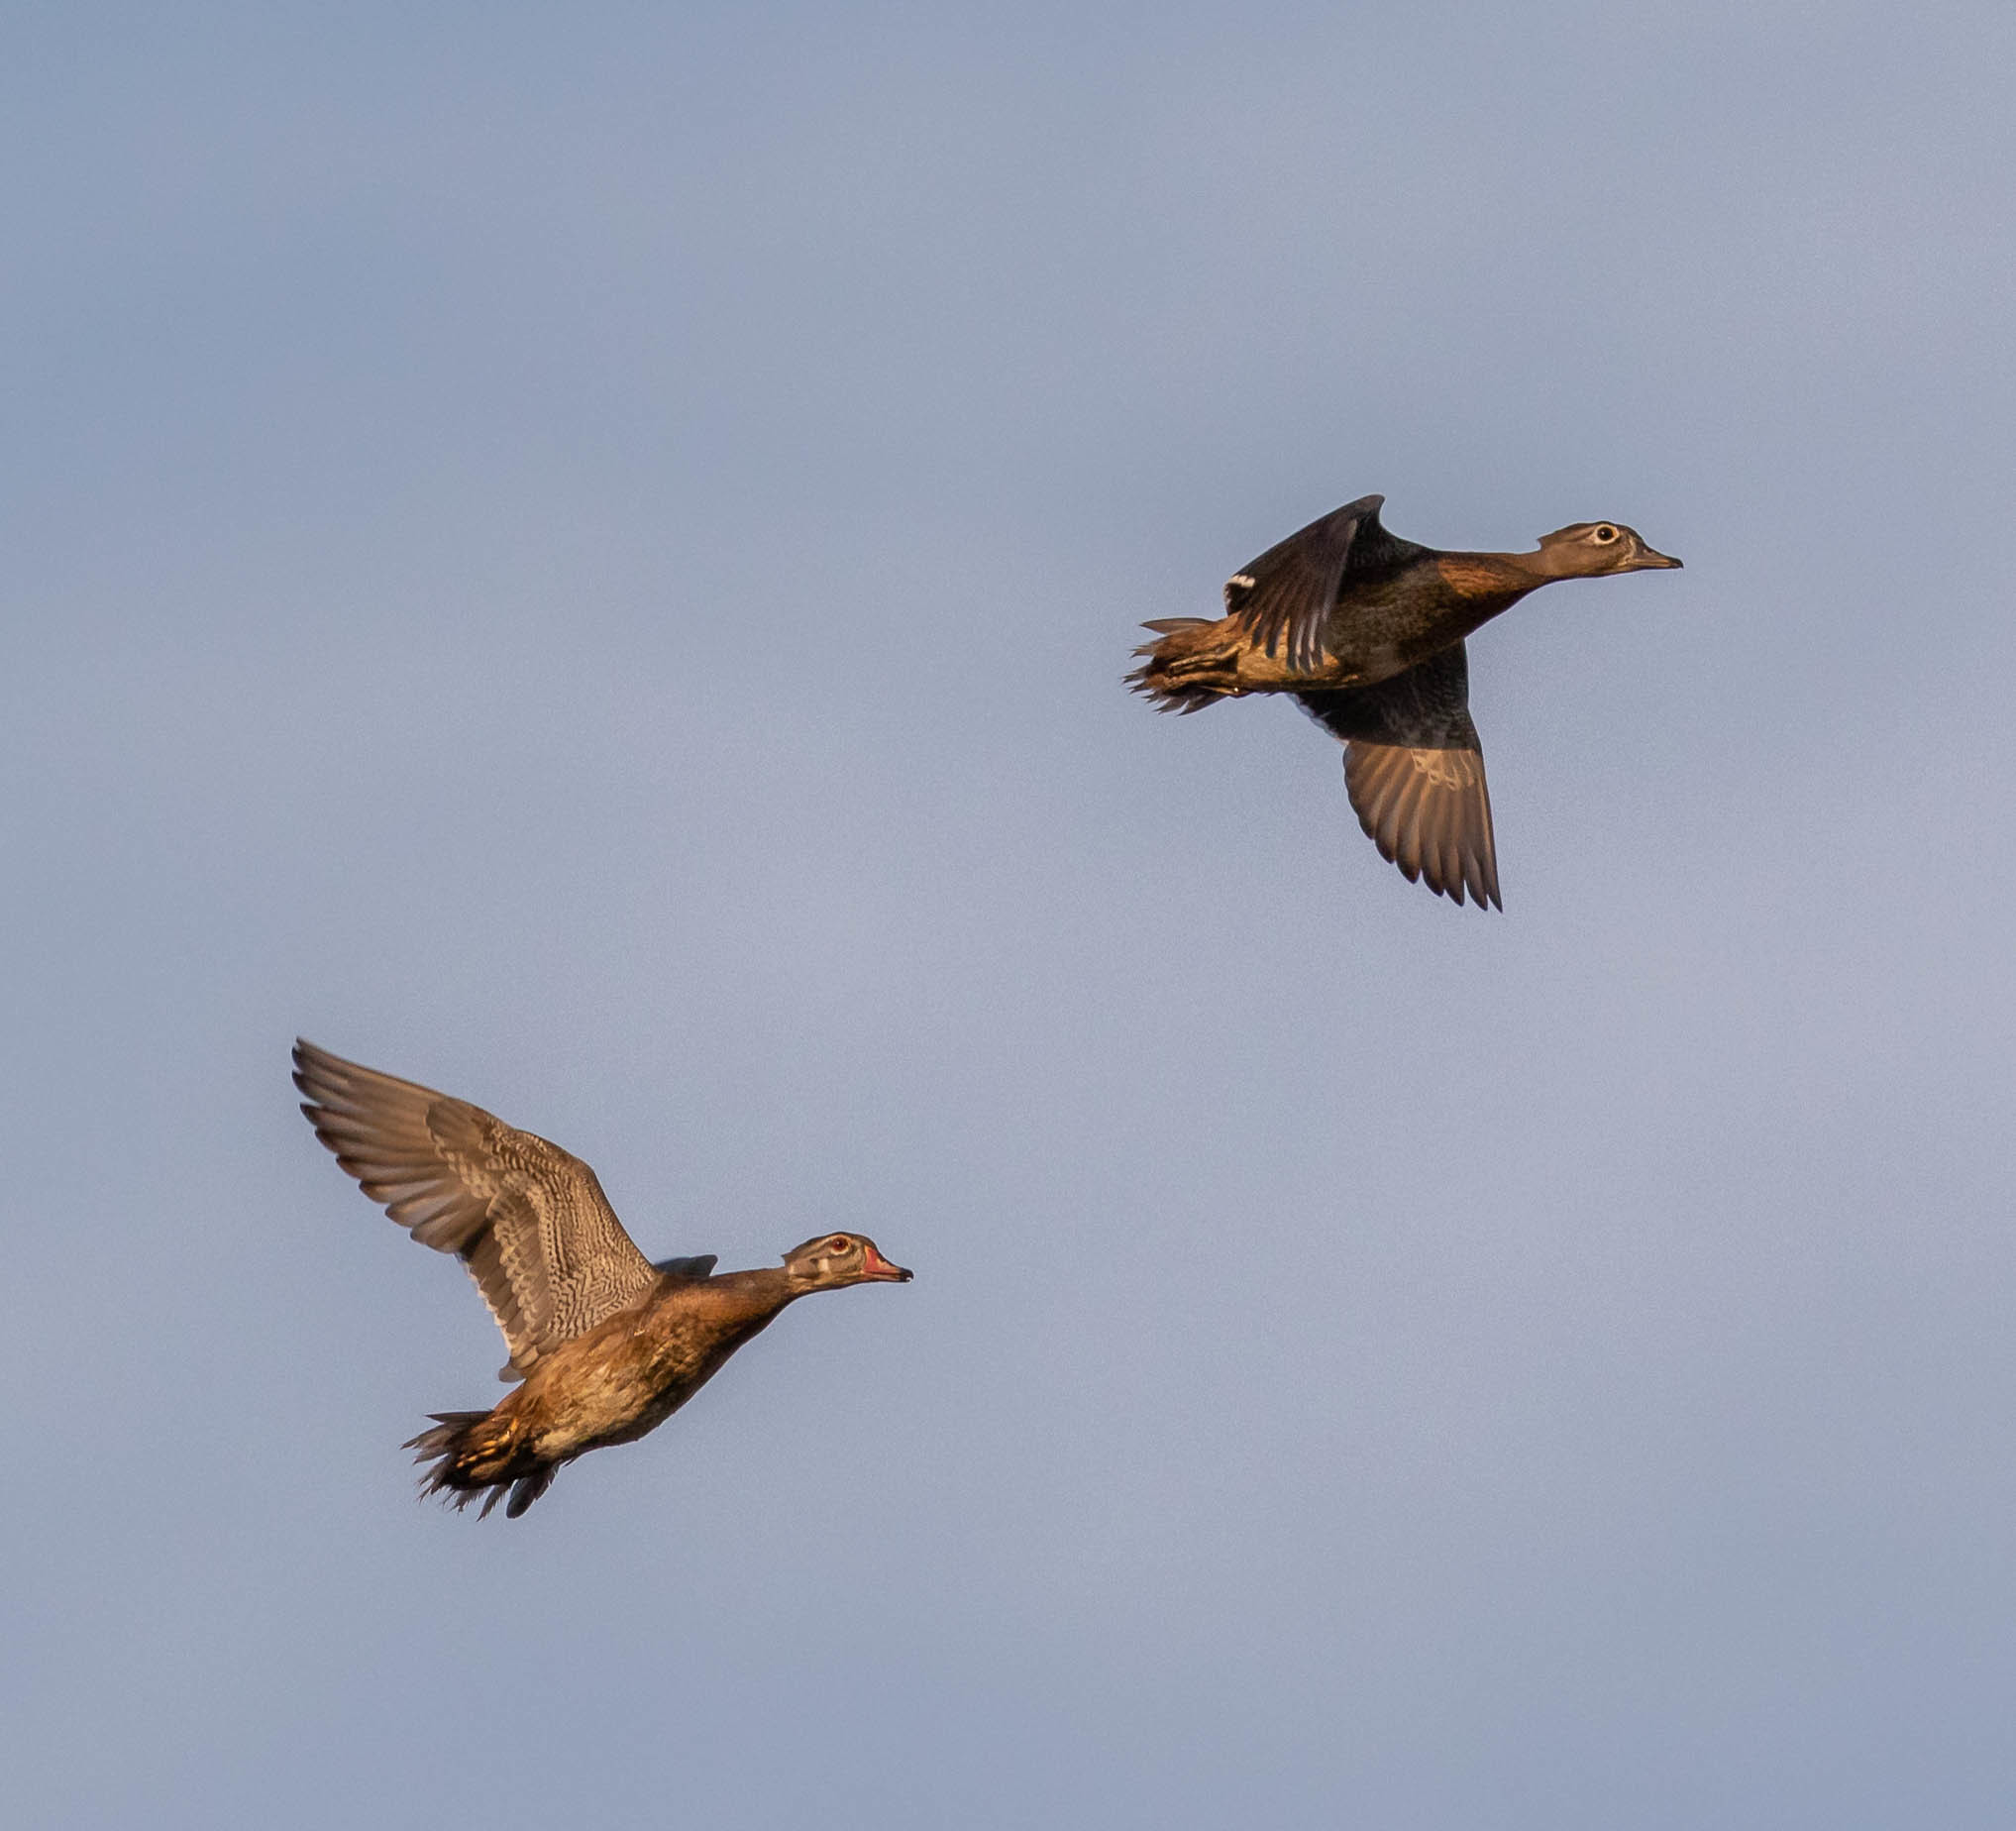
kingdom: Animalia
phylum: Chordata
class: Aves
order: Anseriformes
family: Anatidae
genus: Aix
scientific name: Aix sponsa
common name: Wood duck
